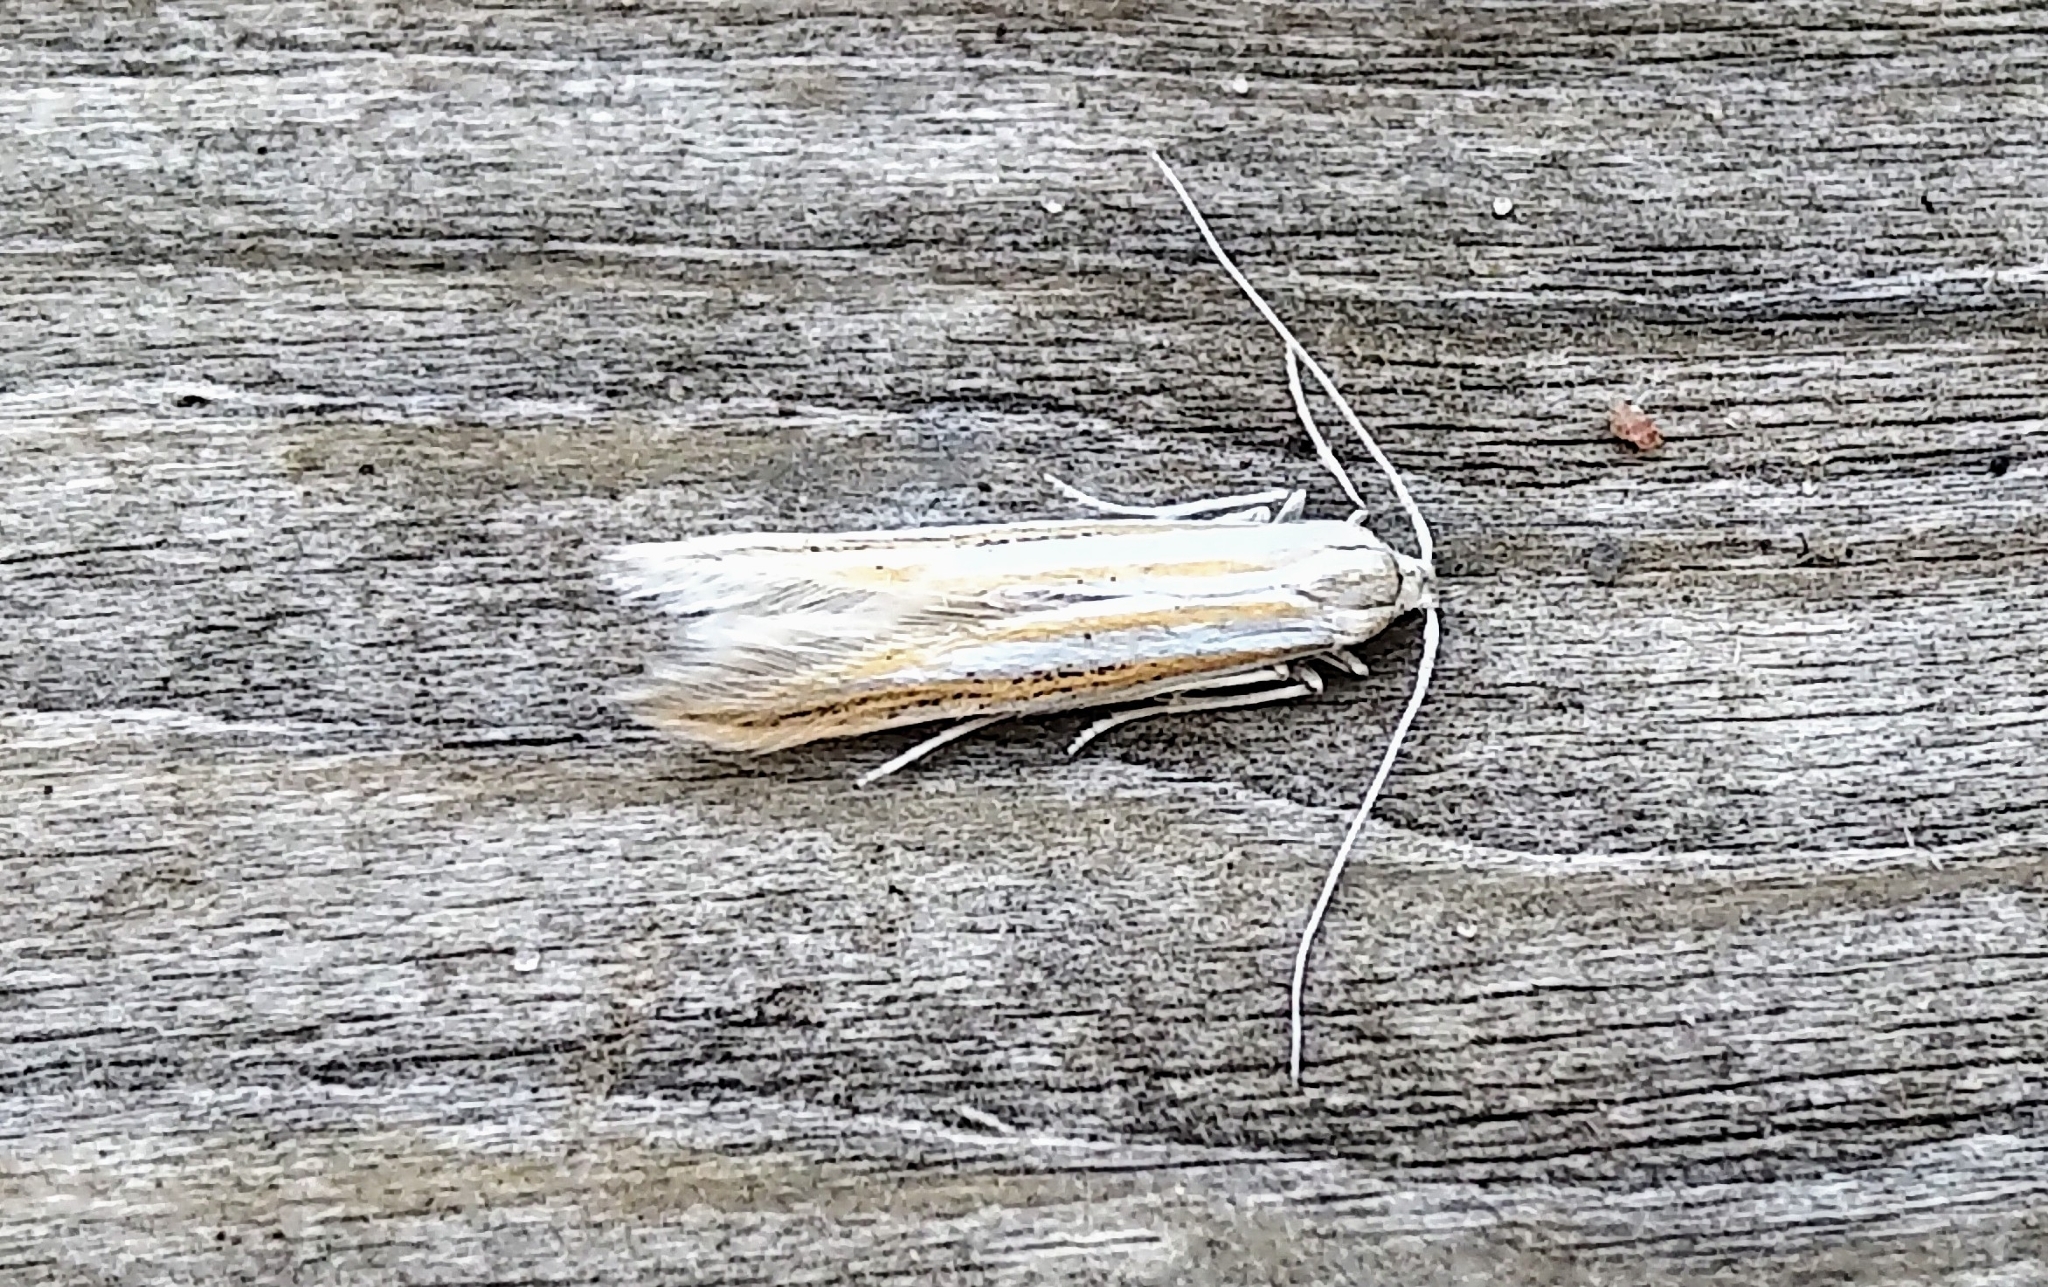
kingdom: Animalia
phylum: Arthropoda
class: Insecta
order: Lepidoptera
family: Coleophoridae
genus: Coleophora
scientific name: Coleophora bistrigella
